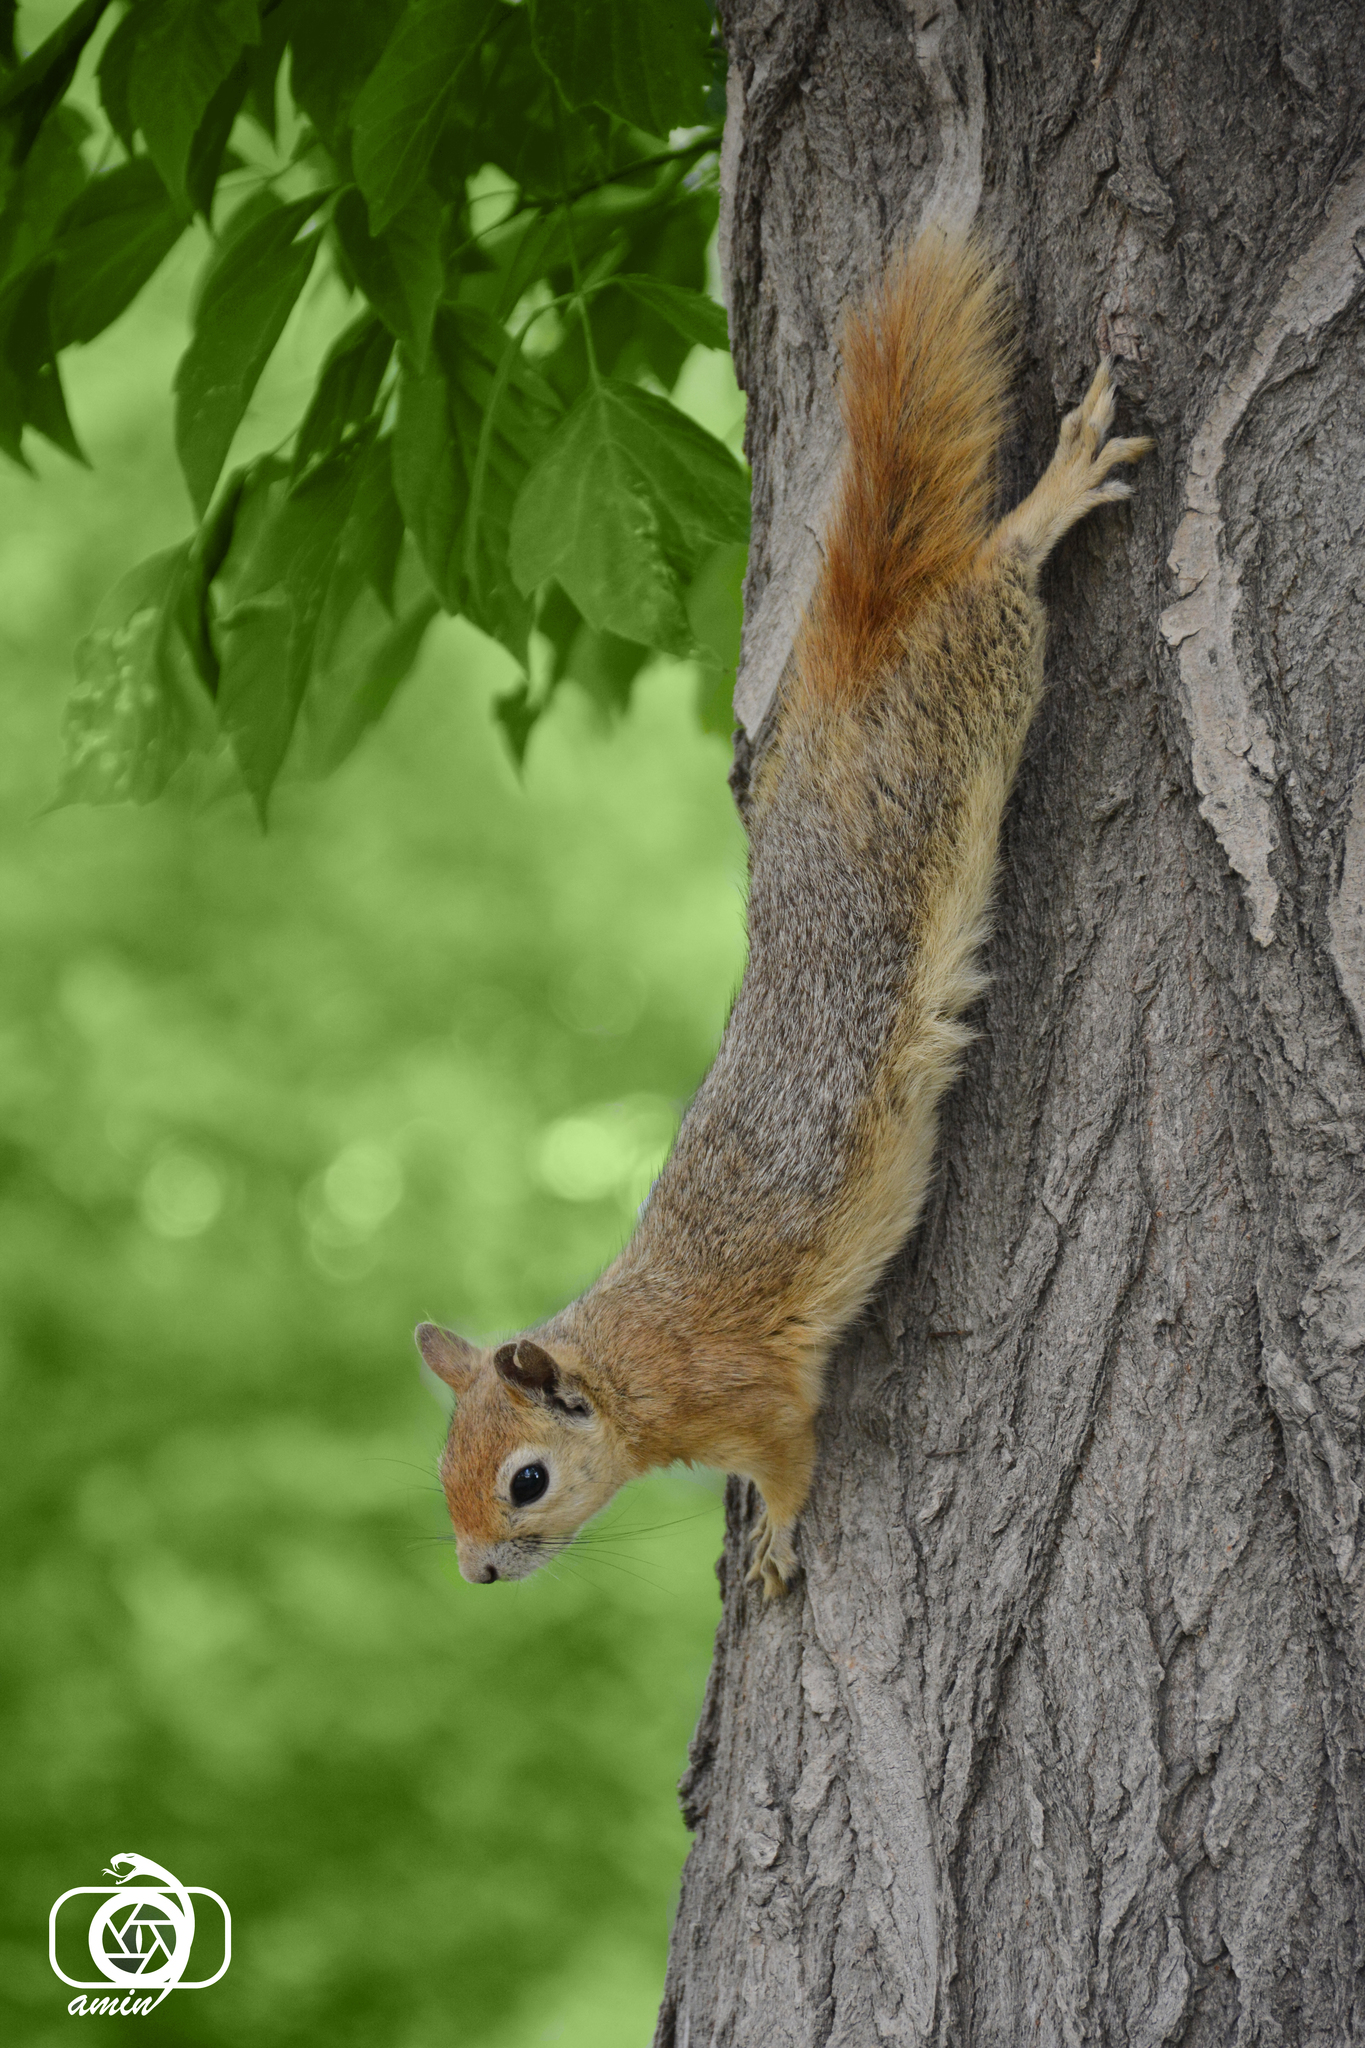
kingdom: Animalia
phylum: Chordata
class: Mammalia
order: Rodentia
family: Sciuridae
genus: Sciurus
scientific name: Sciurus anomalus
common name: Caucasian squirrel
